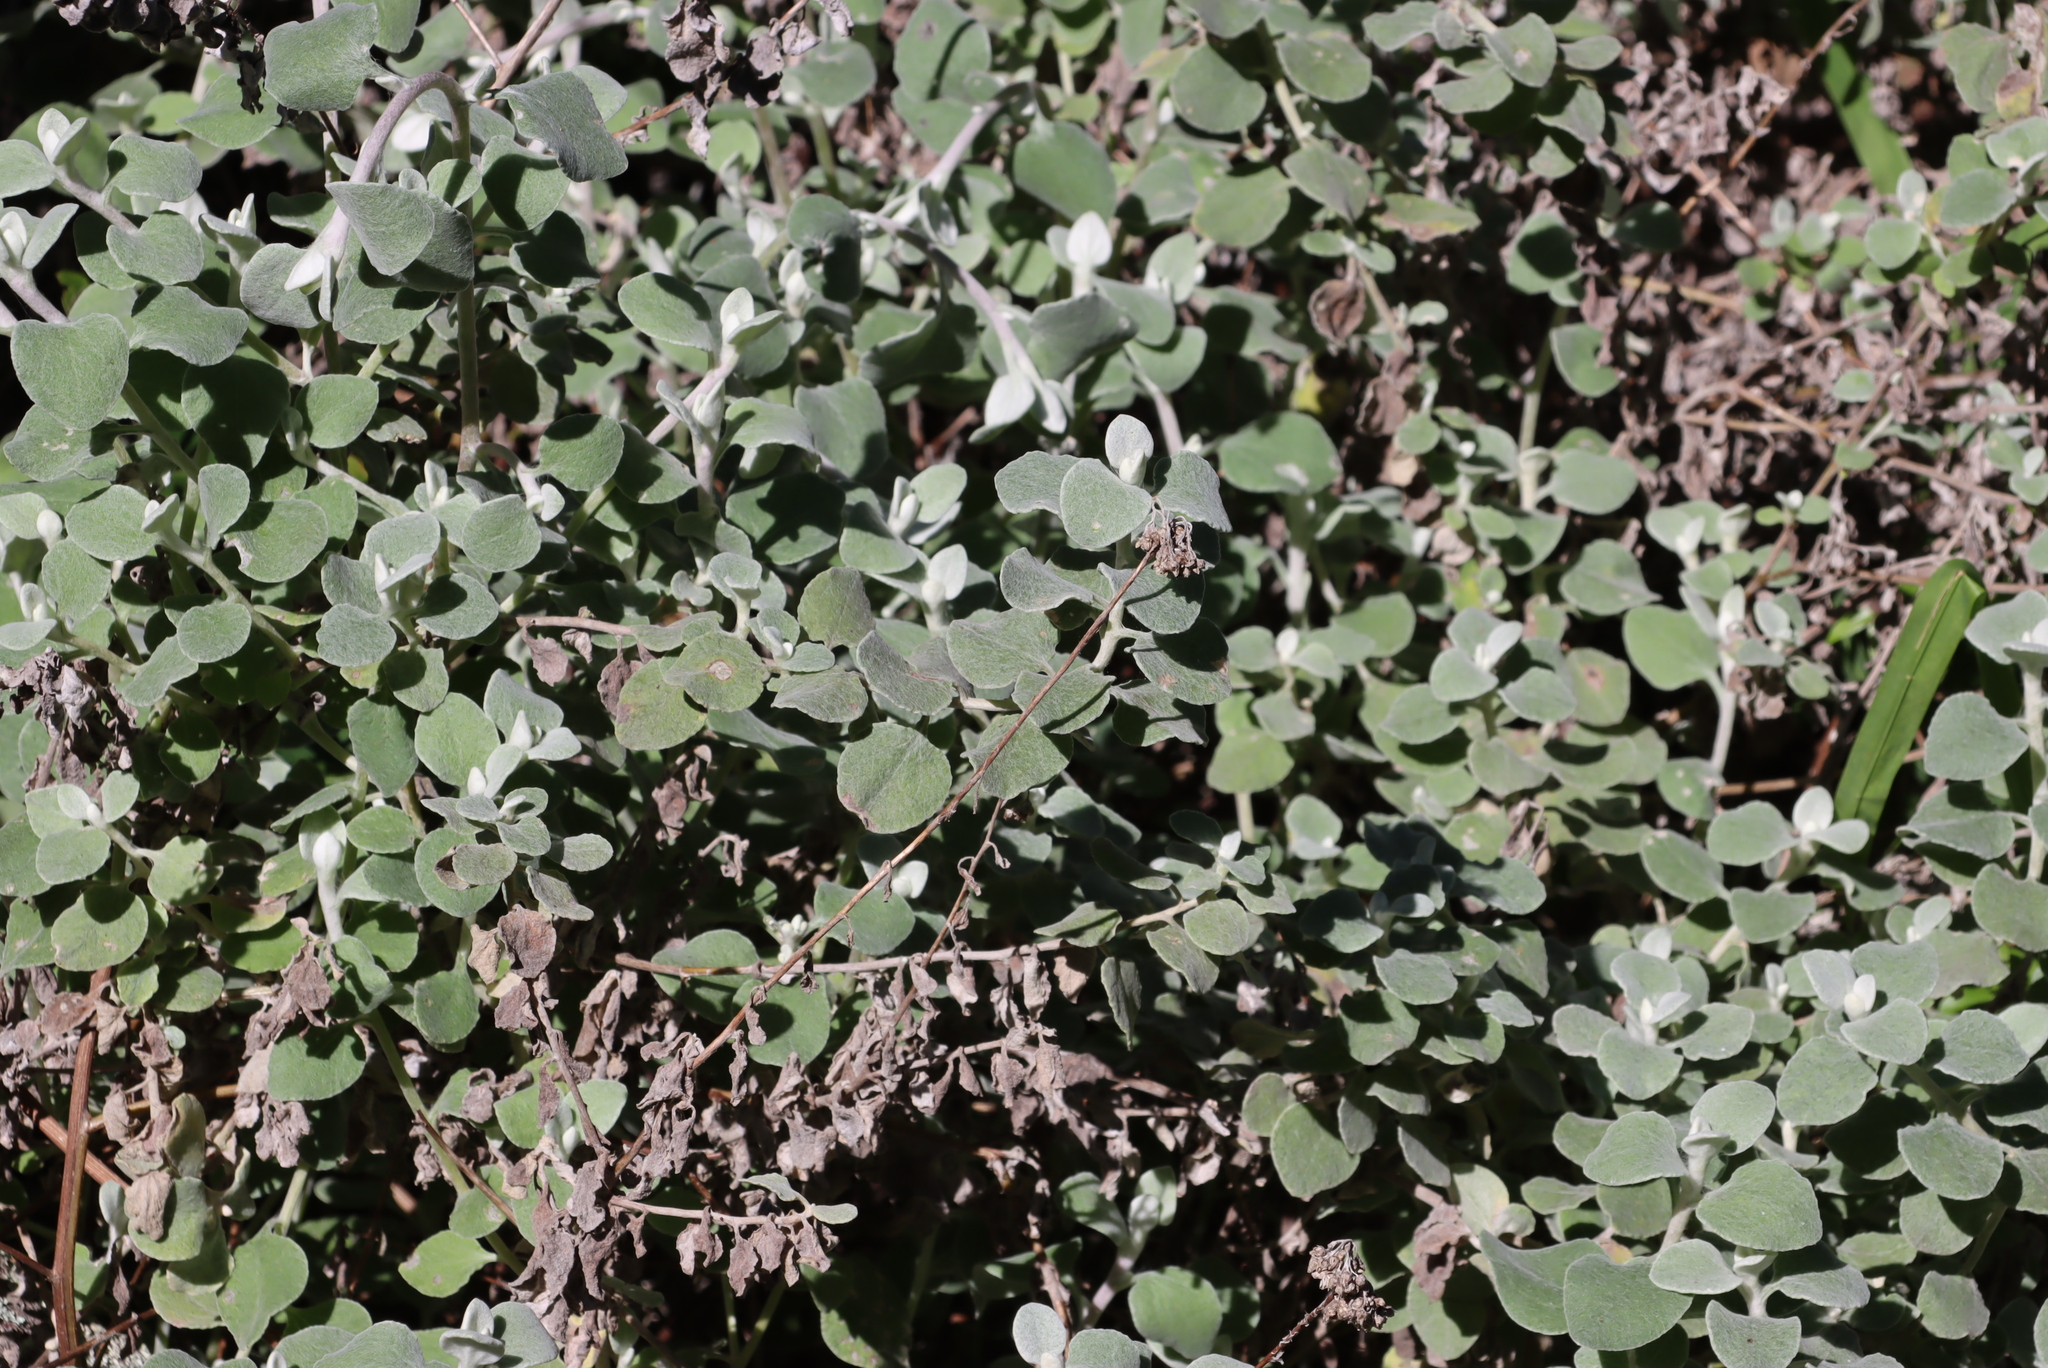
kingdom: Plantae
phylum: Tracheophyta
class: Magnoliopsida
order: Asterales
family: Asteraceae
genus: Helichrysum
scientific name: Helichrysum petiolare
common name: Licorice-plant
